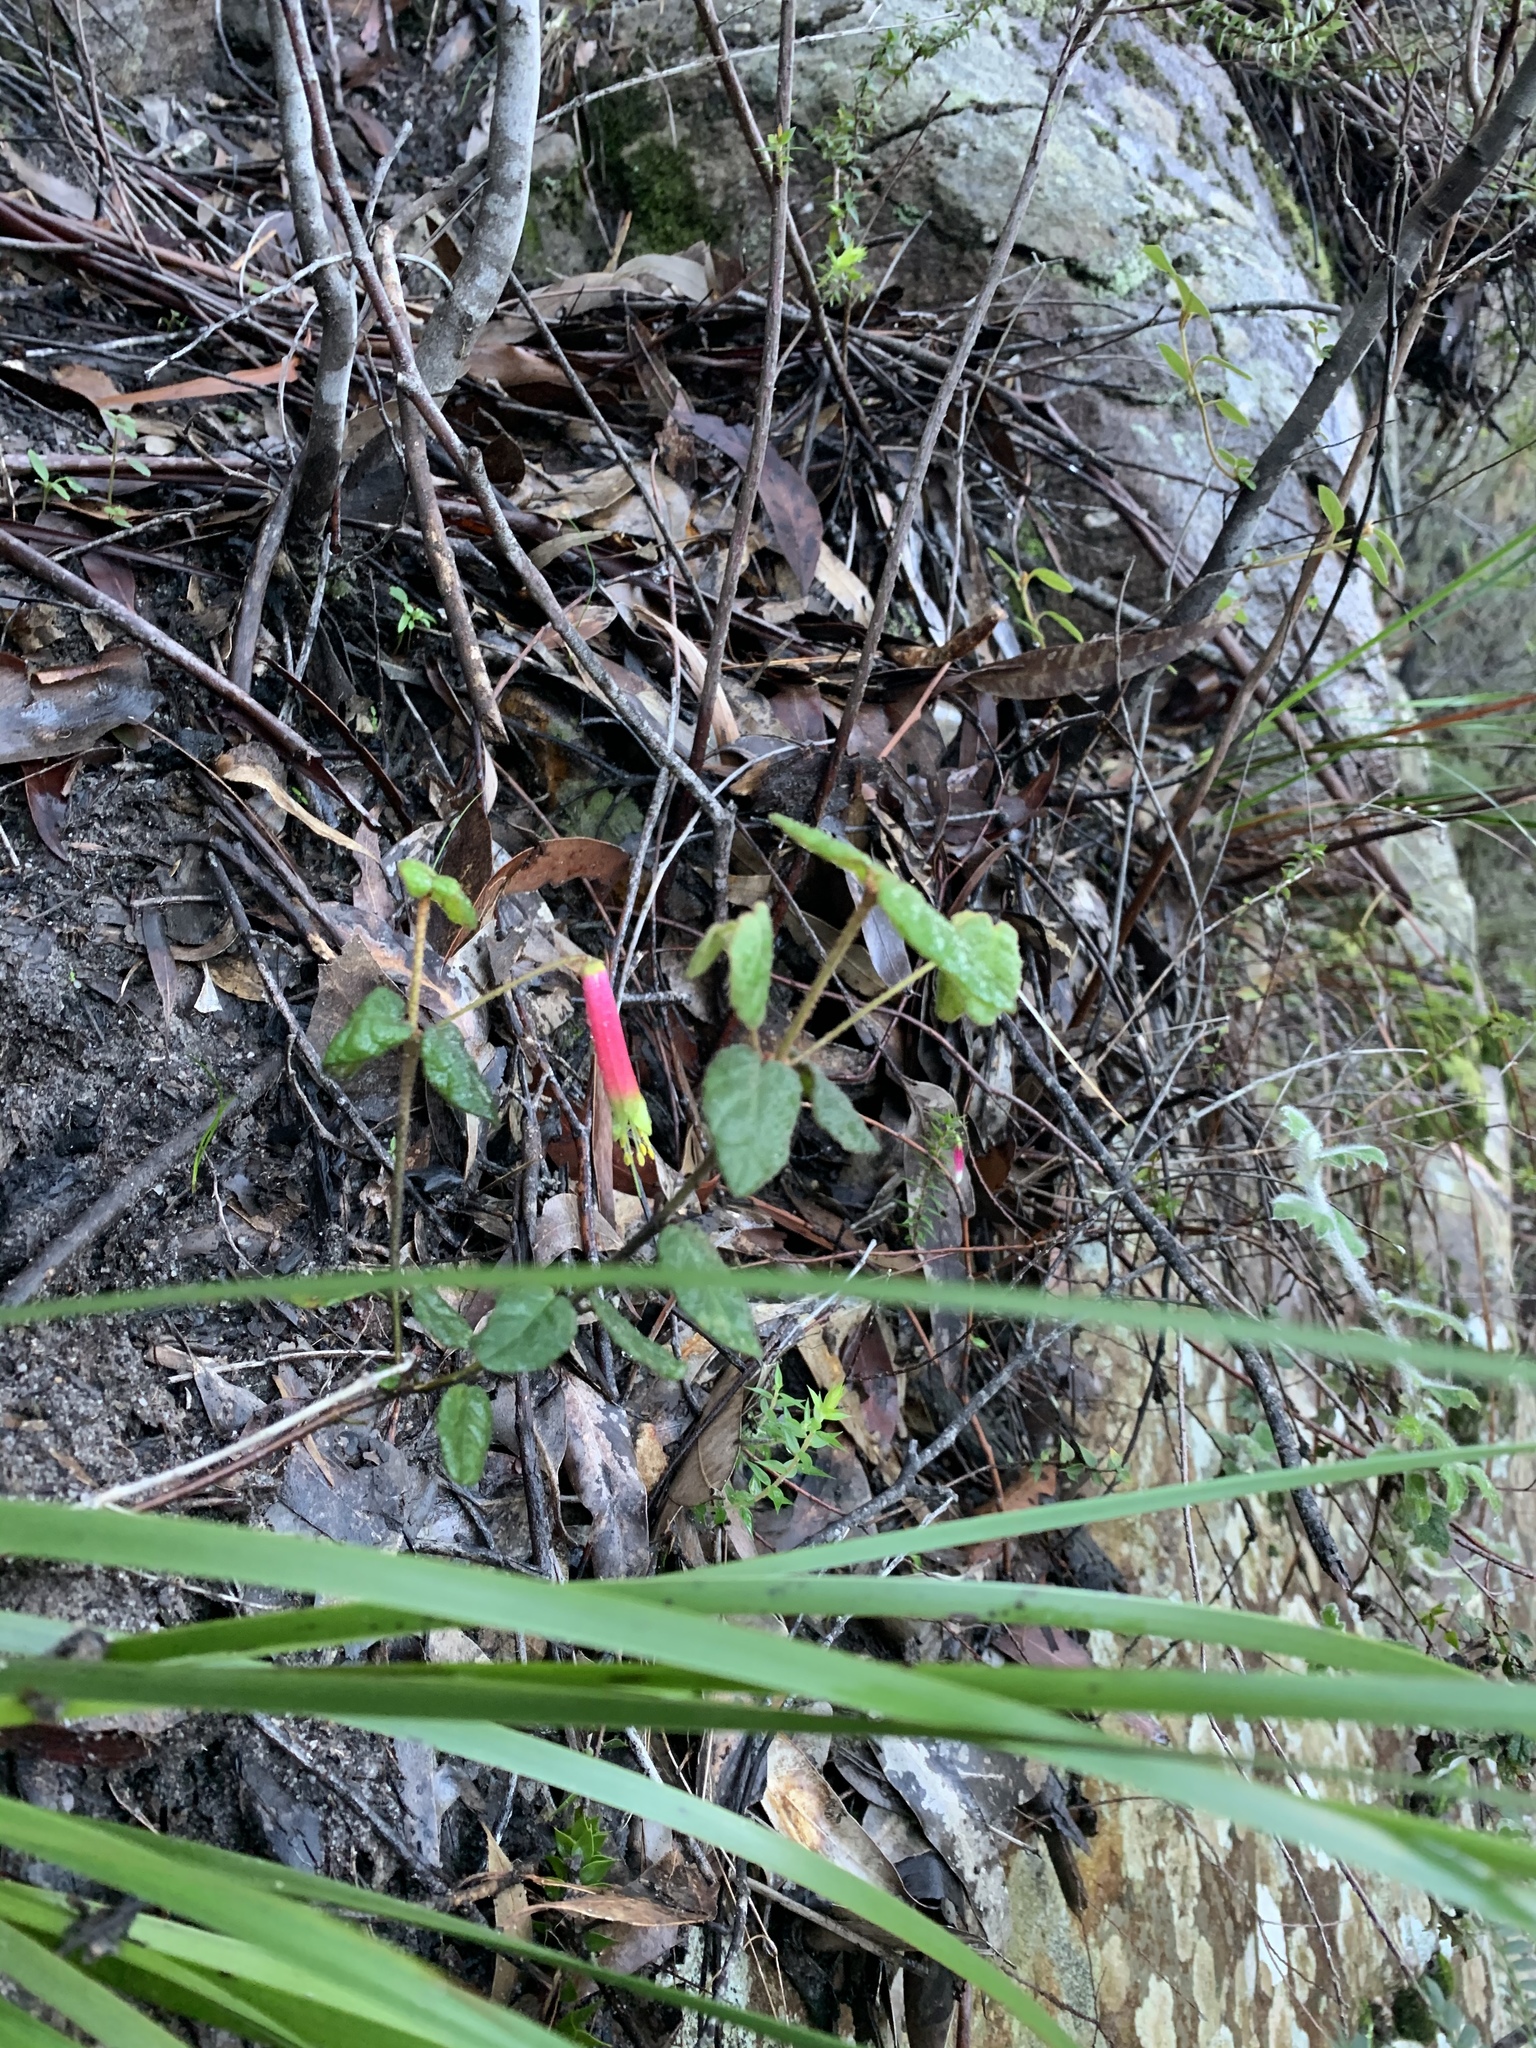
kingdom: Plantae
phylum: Tracheophyta
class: Magnoliopsida
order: Sapindales
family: Rutaceae
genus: Correa
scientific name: Correa reflexa
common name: Common correa
